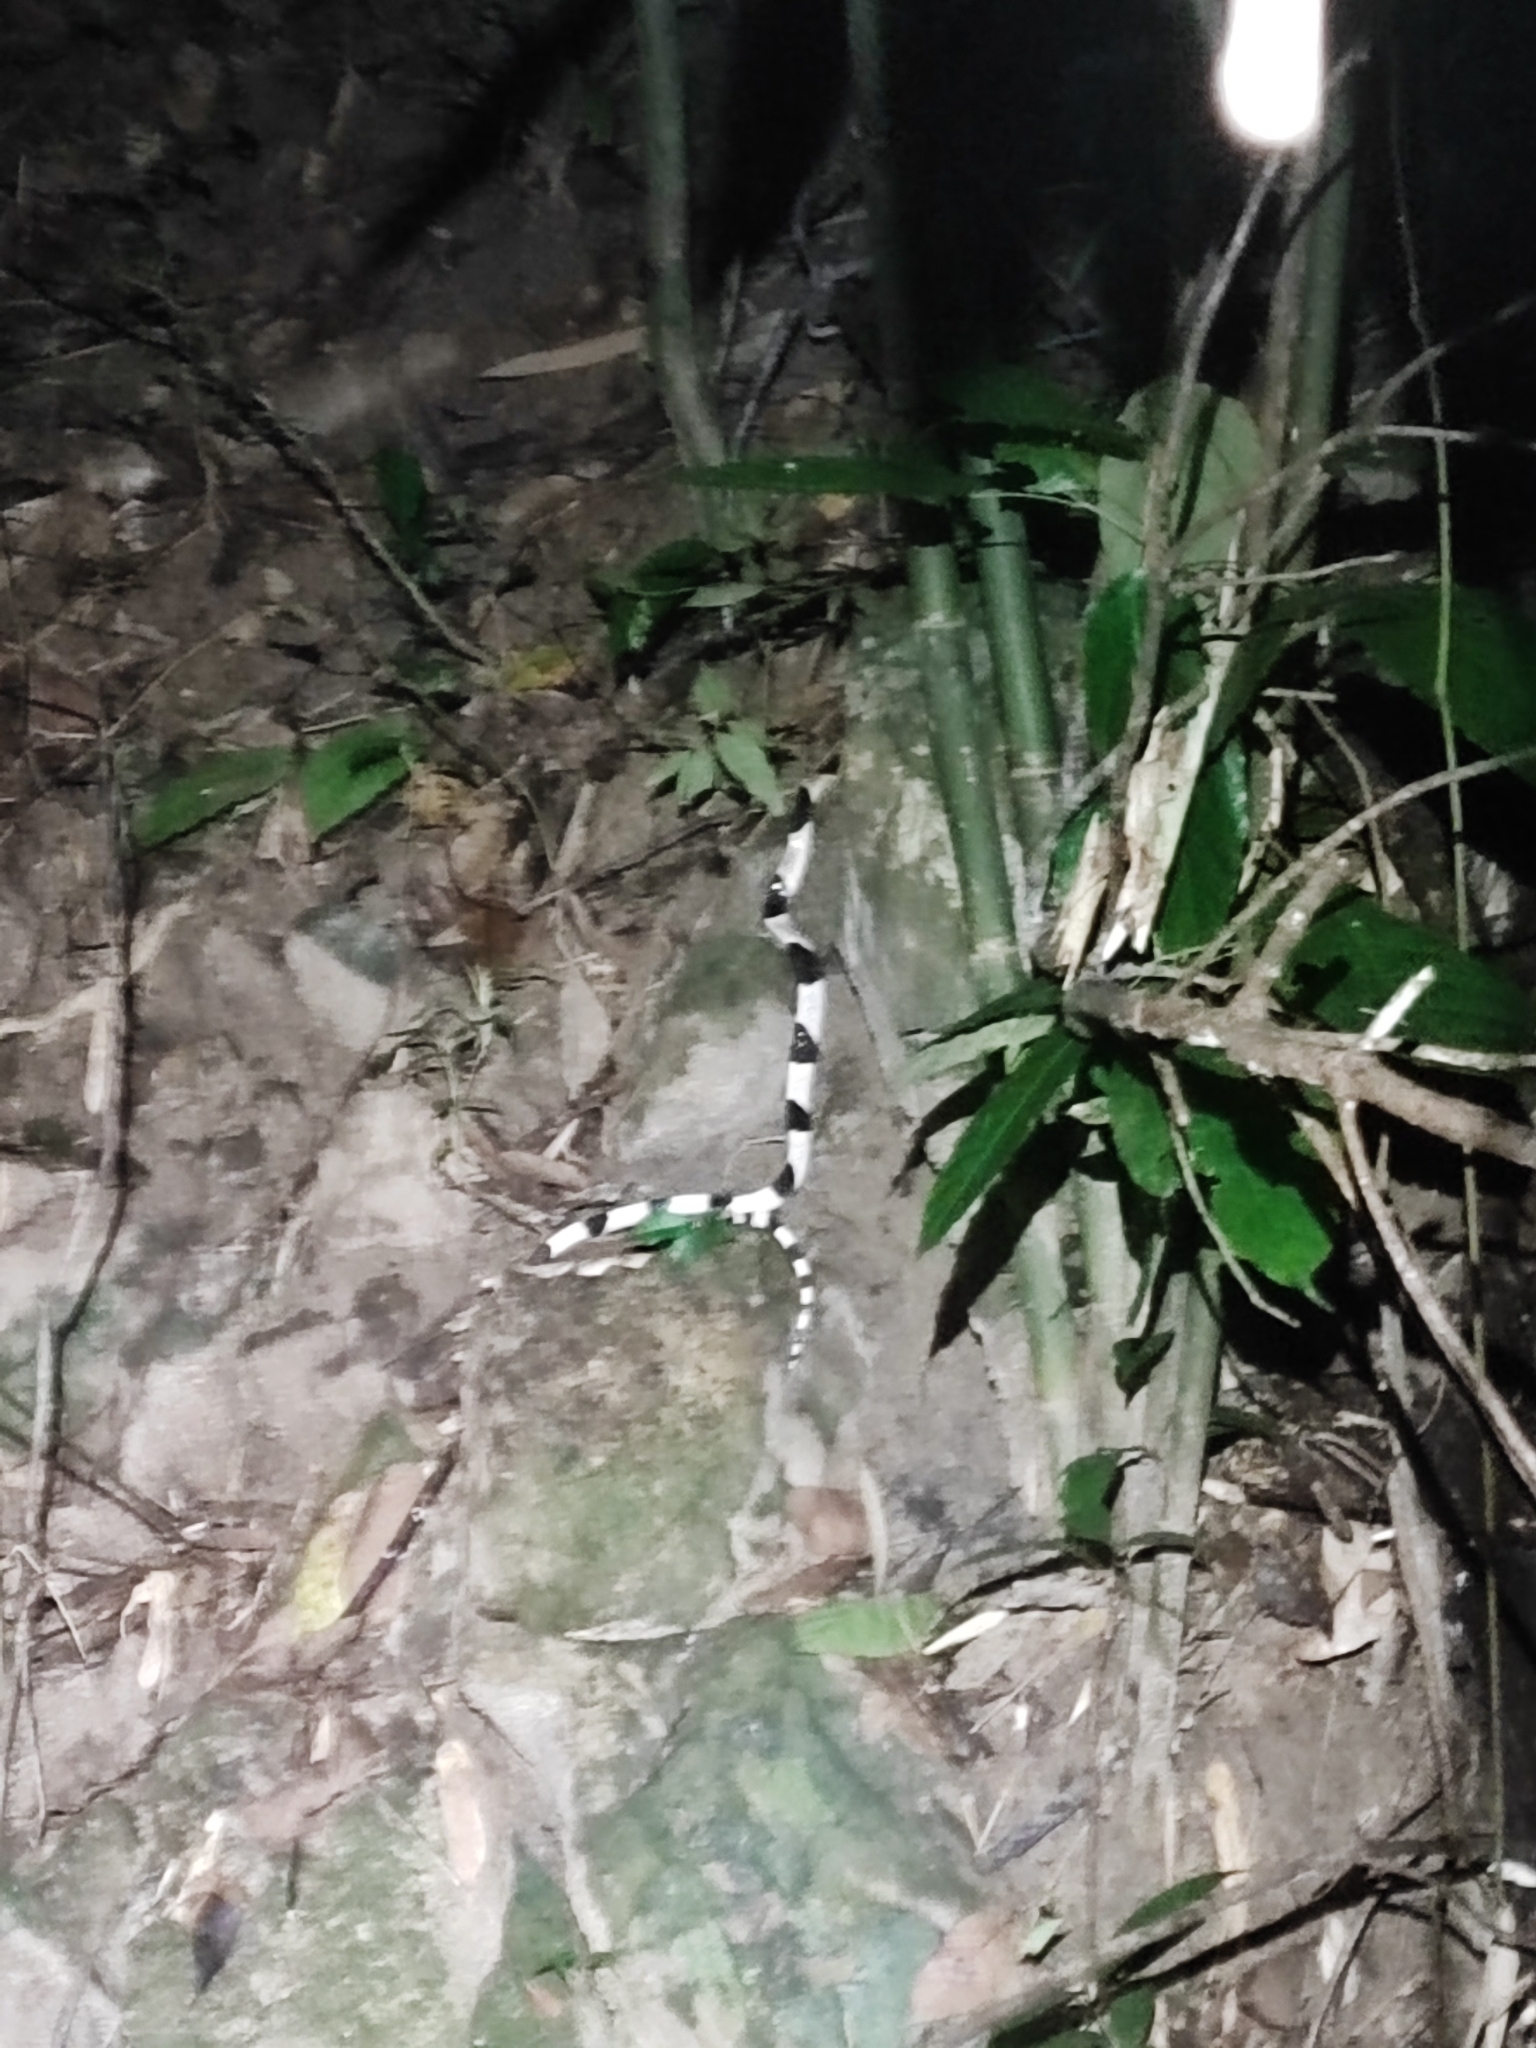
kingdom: Animalia
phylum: Chordata
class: Squamata
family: Elapidae
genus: Bungarus
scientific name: Bungarus candidus
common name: Blue krait/malayan krait
